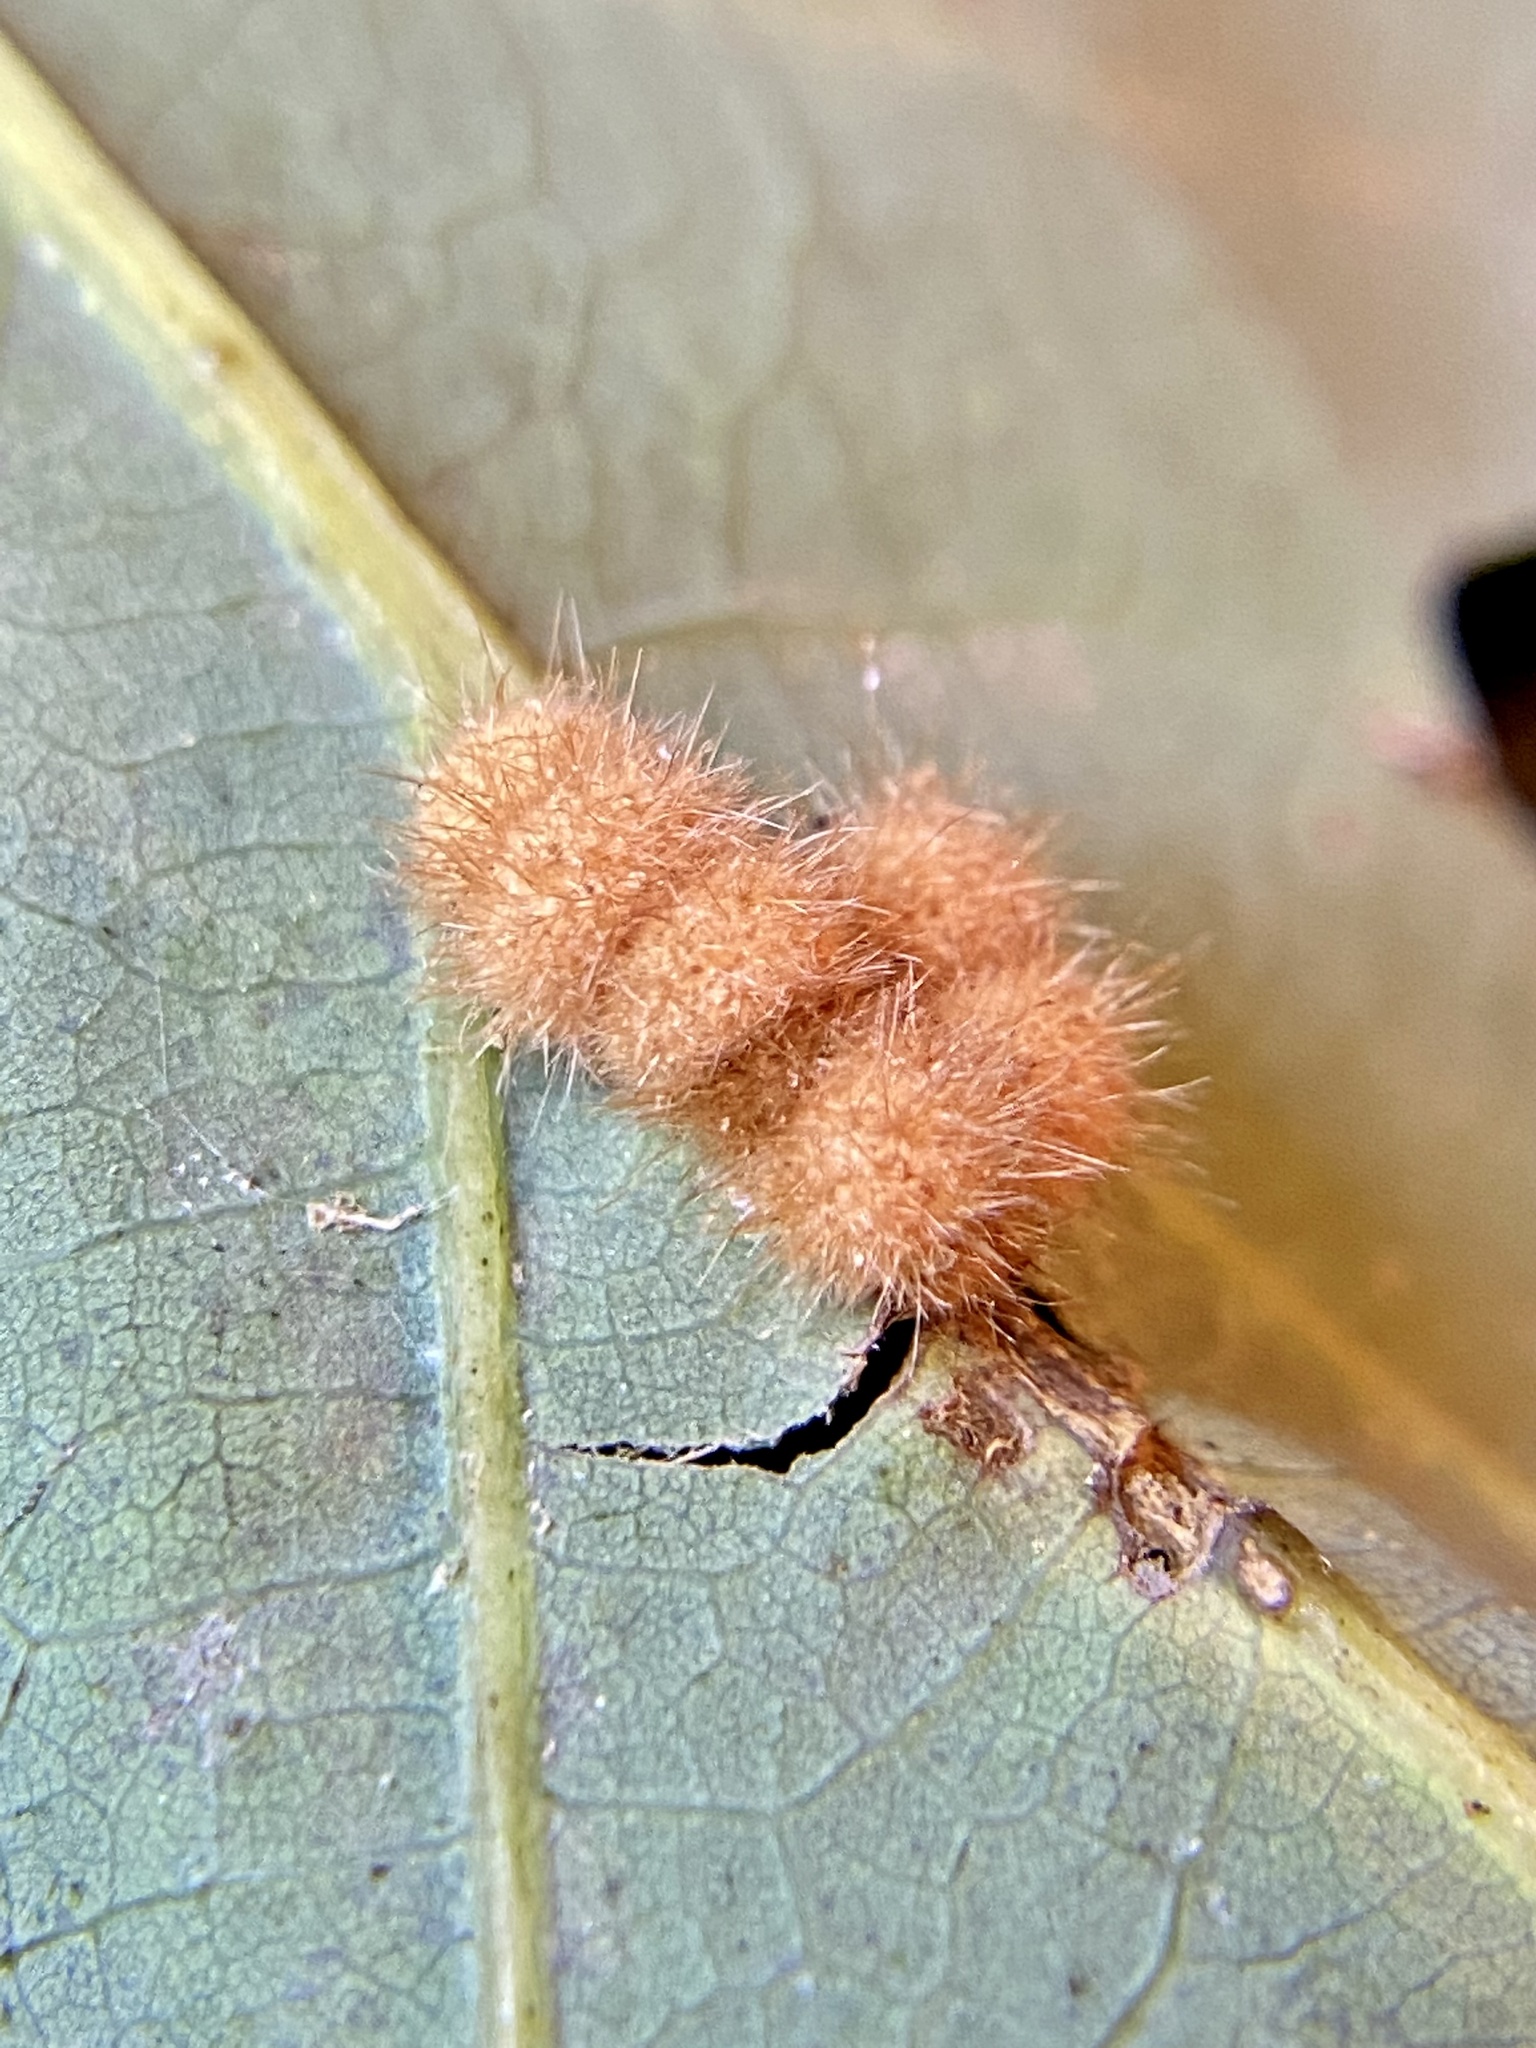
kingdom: Animalia
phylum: Arthropoda
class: Insecta
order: Hymenoptera
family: Cynipidae
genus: Andricus
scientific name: Andricus
